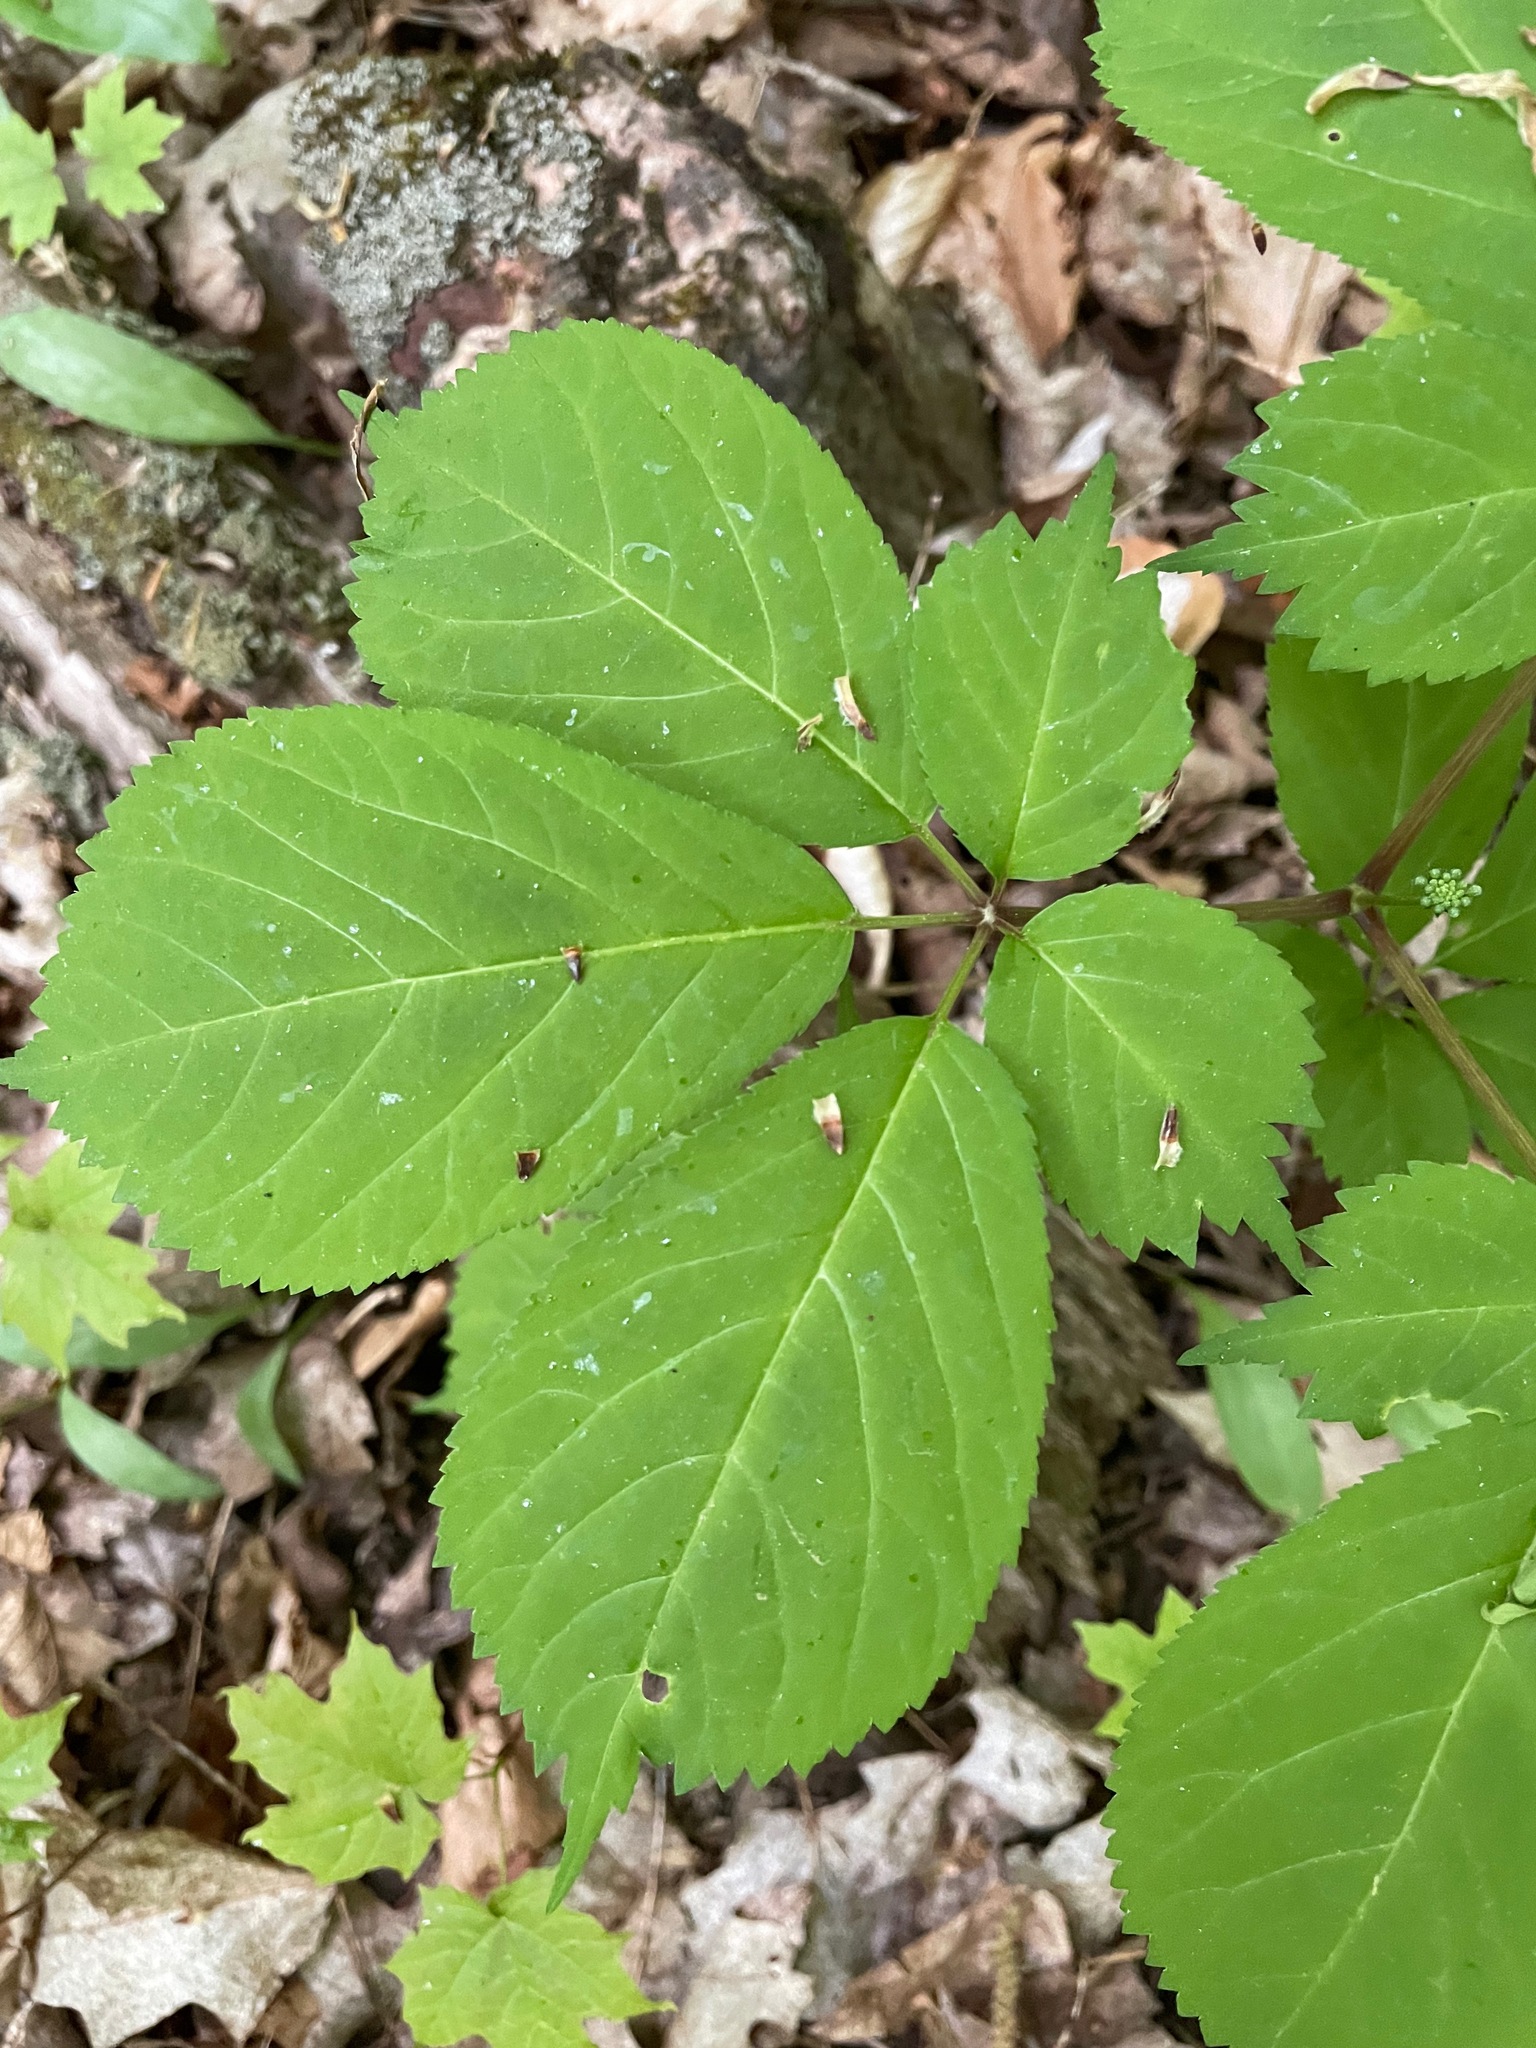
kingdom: Plantae
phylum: Tracheophyta
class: Magnoliopsida
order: Apiales
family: Araliaceae
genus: Panax
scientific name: Panax quinquefolius
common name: American ginseng
